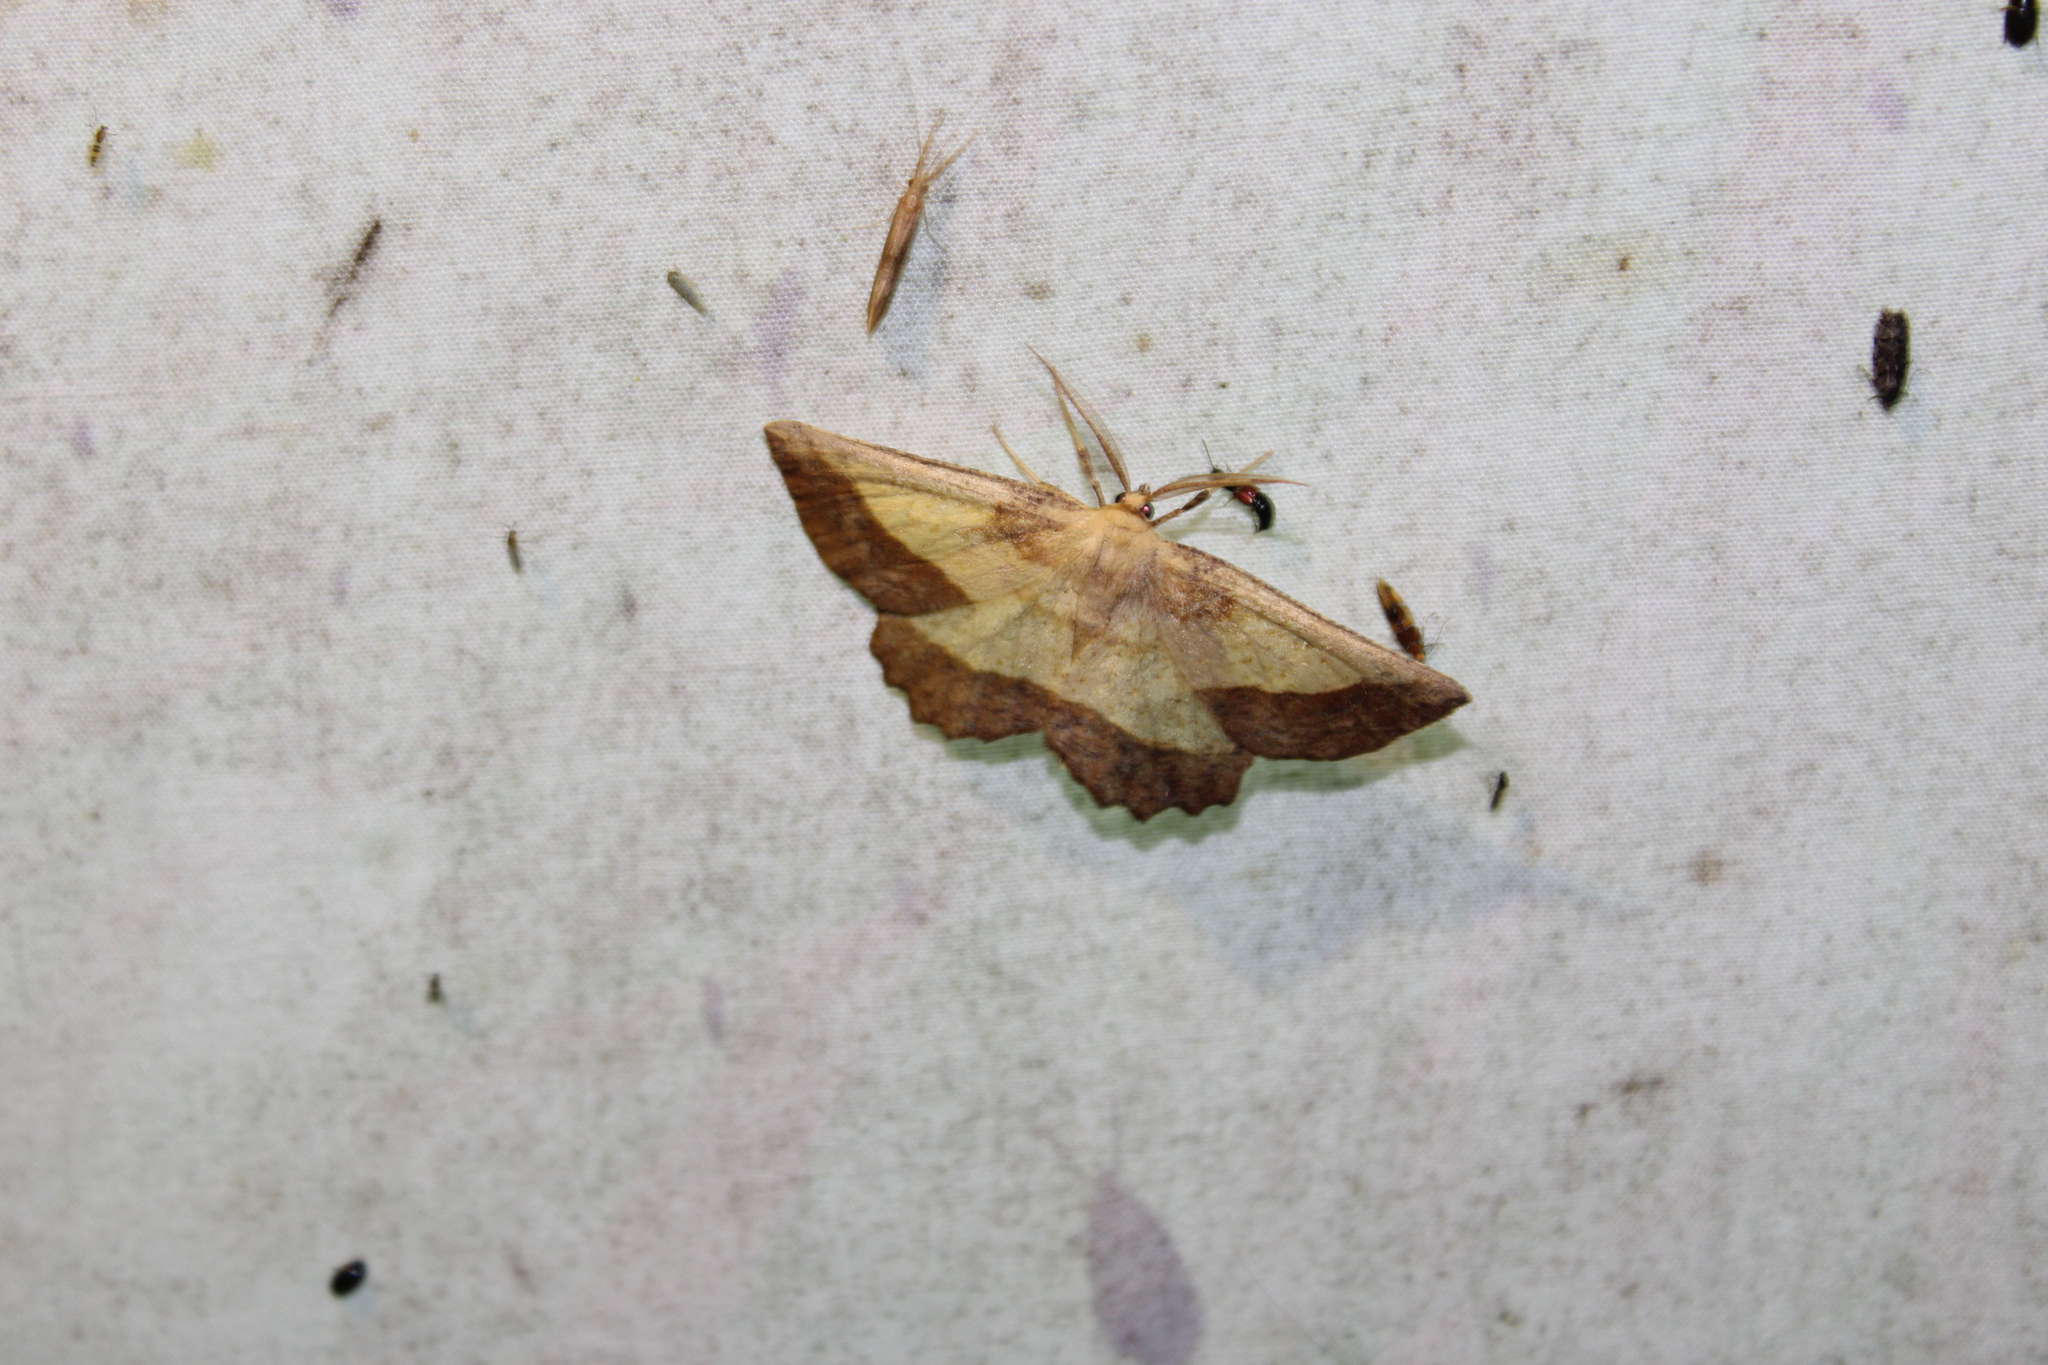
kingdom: Animalia
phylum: Arthropoda
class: Insecta
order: Lepidoptera
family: Geometridae
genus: Euchlaena
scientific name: Euchlaena serrata
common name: Saw wing
